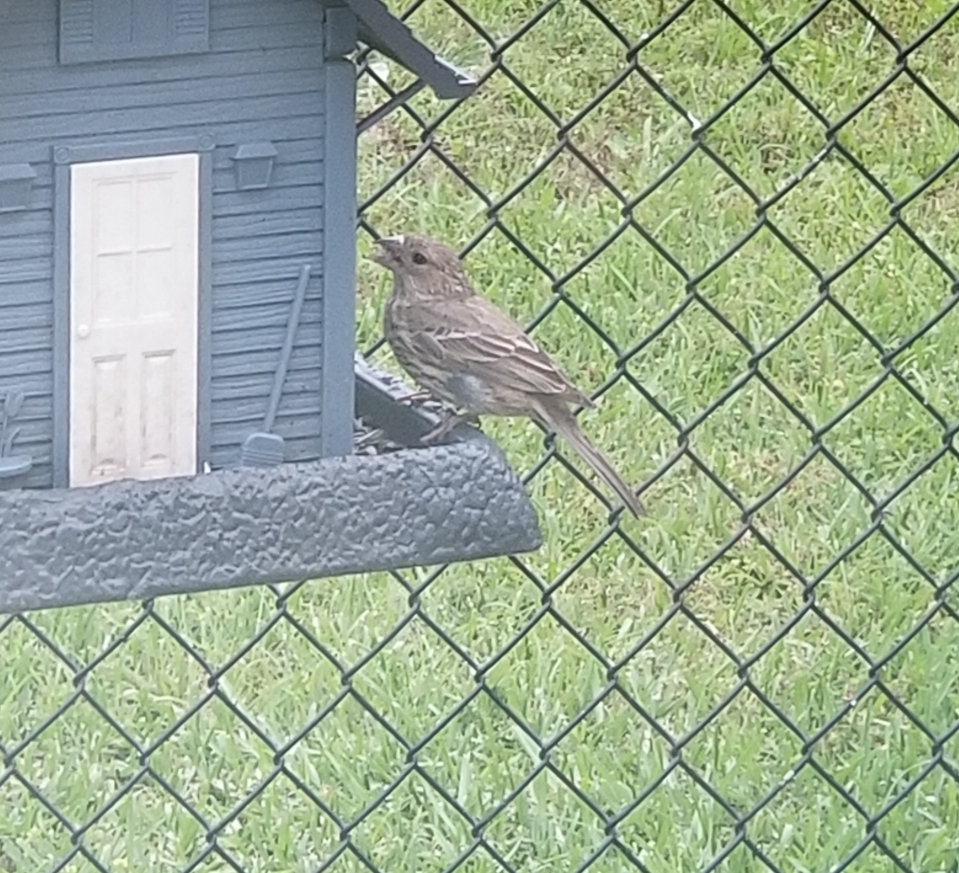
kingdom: Animalia
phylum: Chordata
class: Aves
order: Passeriformes
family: Fringillidae
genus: Haemorhous
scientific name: Haemorhous mexicanus
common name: House finch
